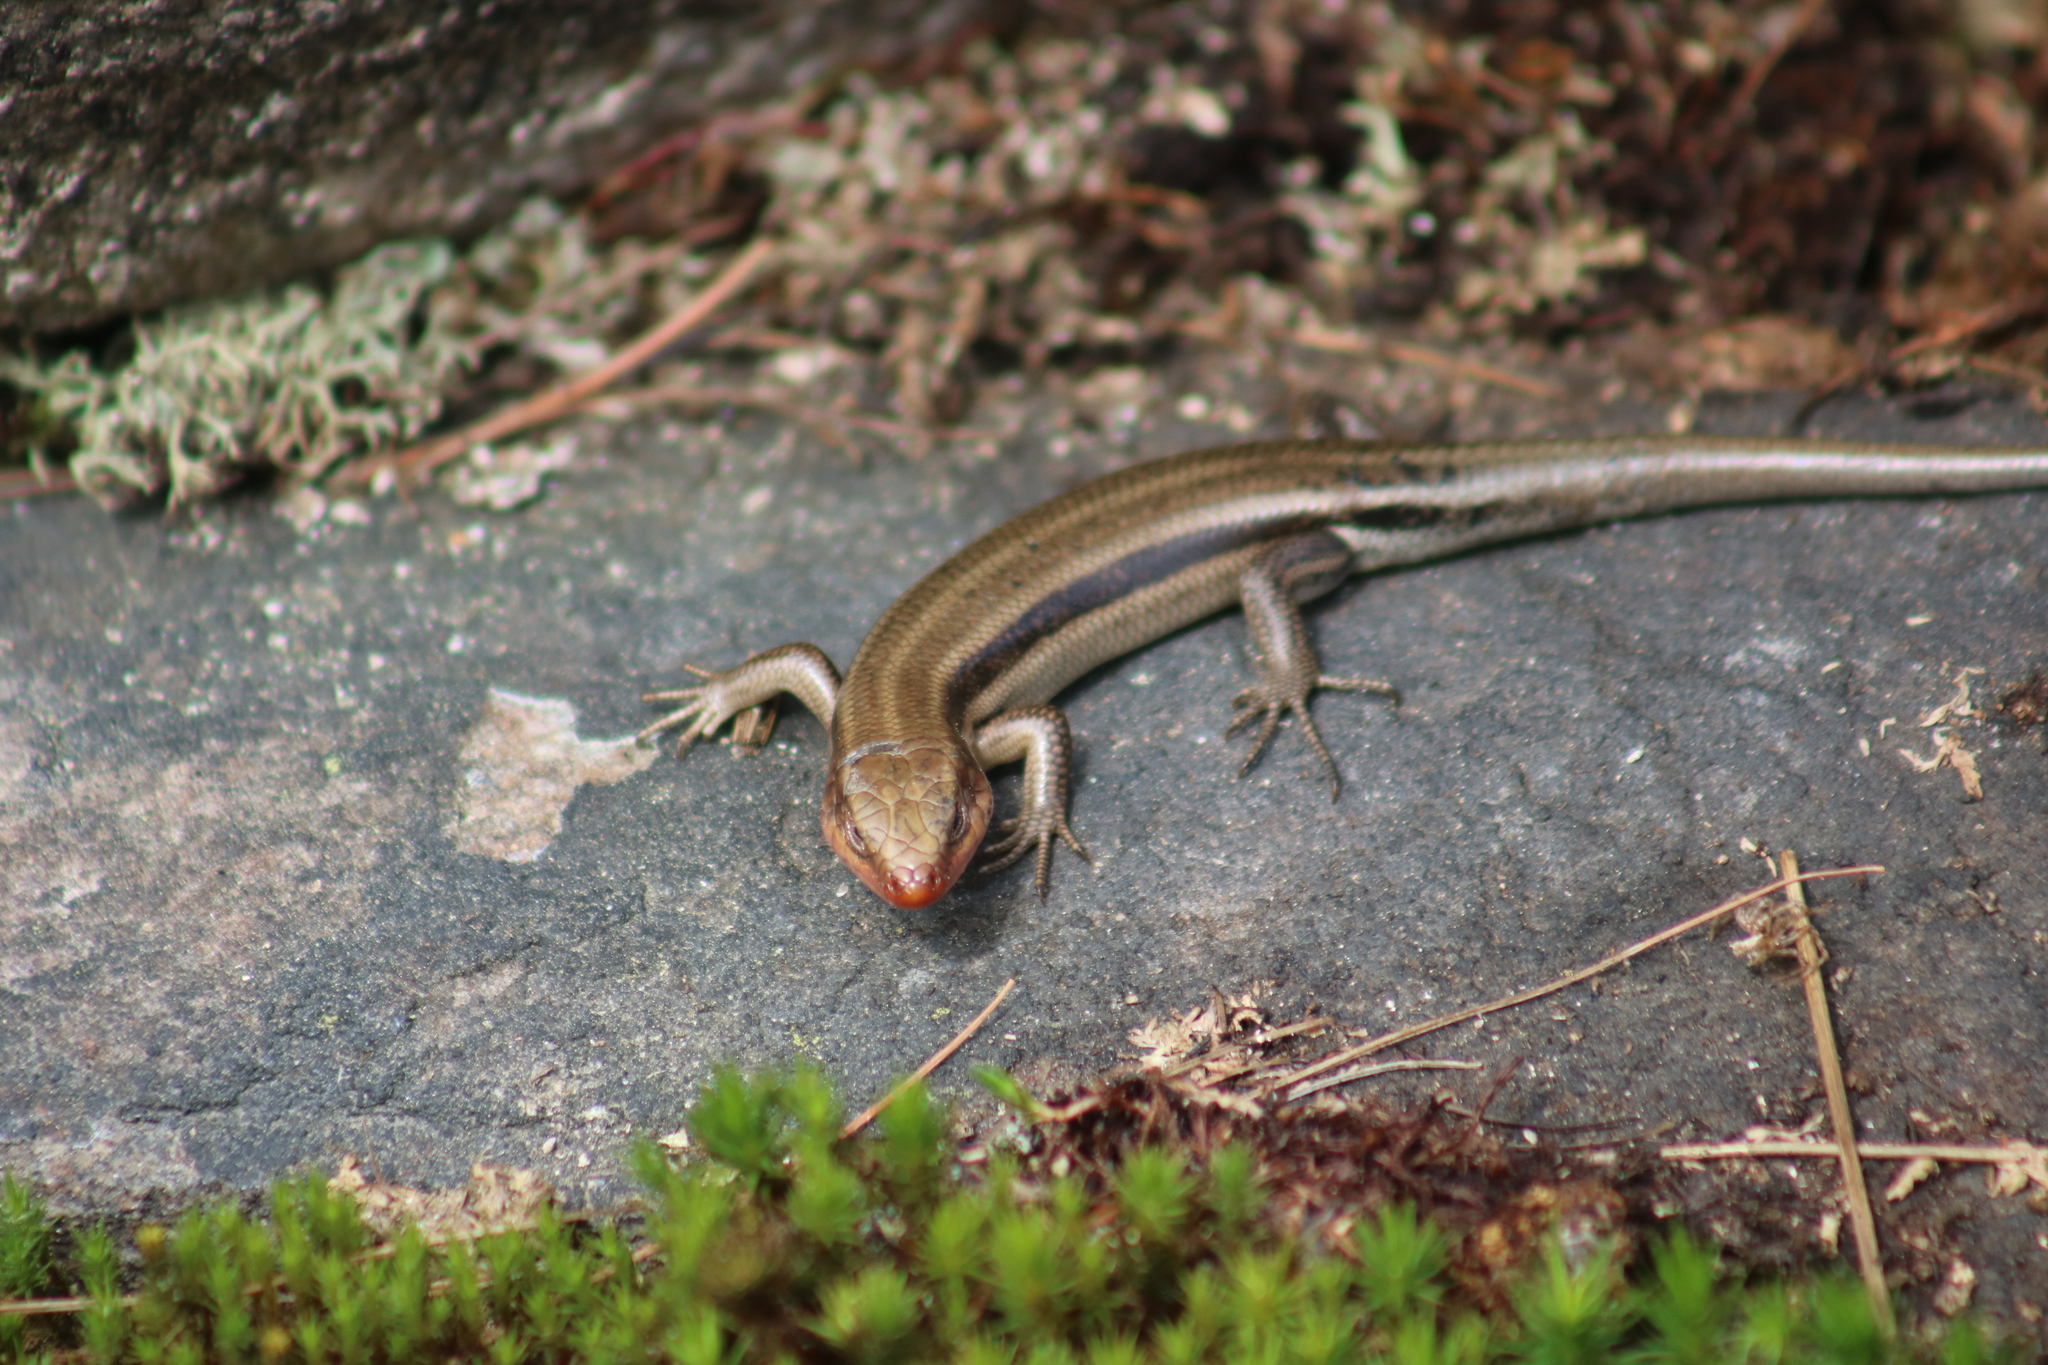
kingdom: Animalia
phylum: Chordata
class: Squamata
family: Scincidae
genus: Plestiodon
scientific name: Plestiodon fasciatus
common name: Five-lined skink
